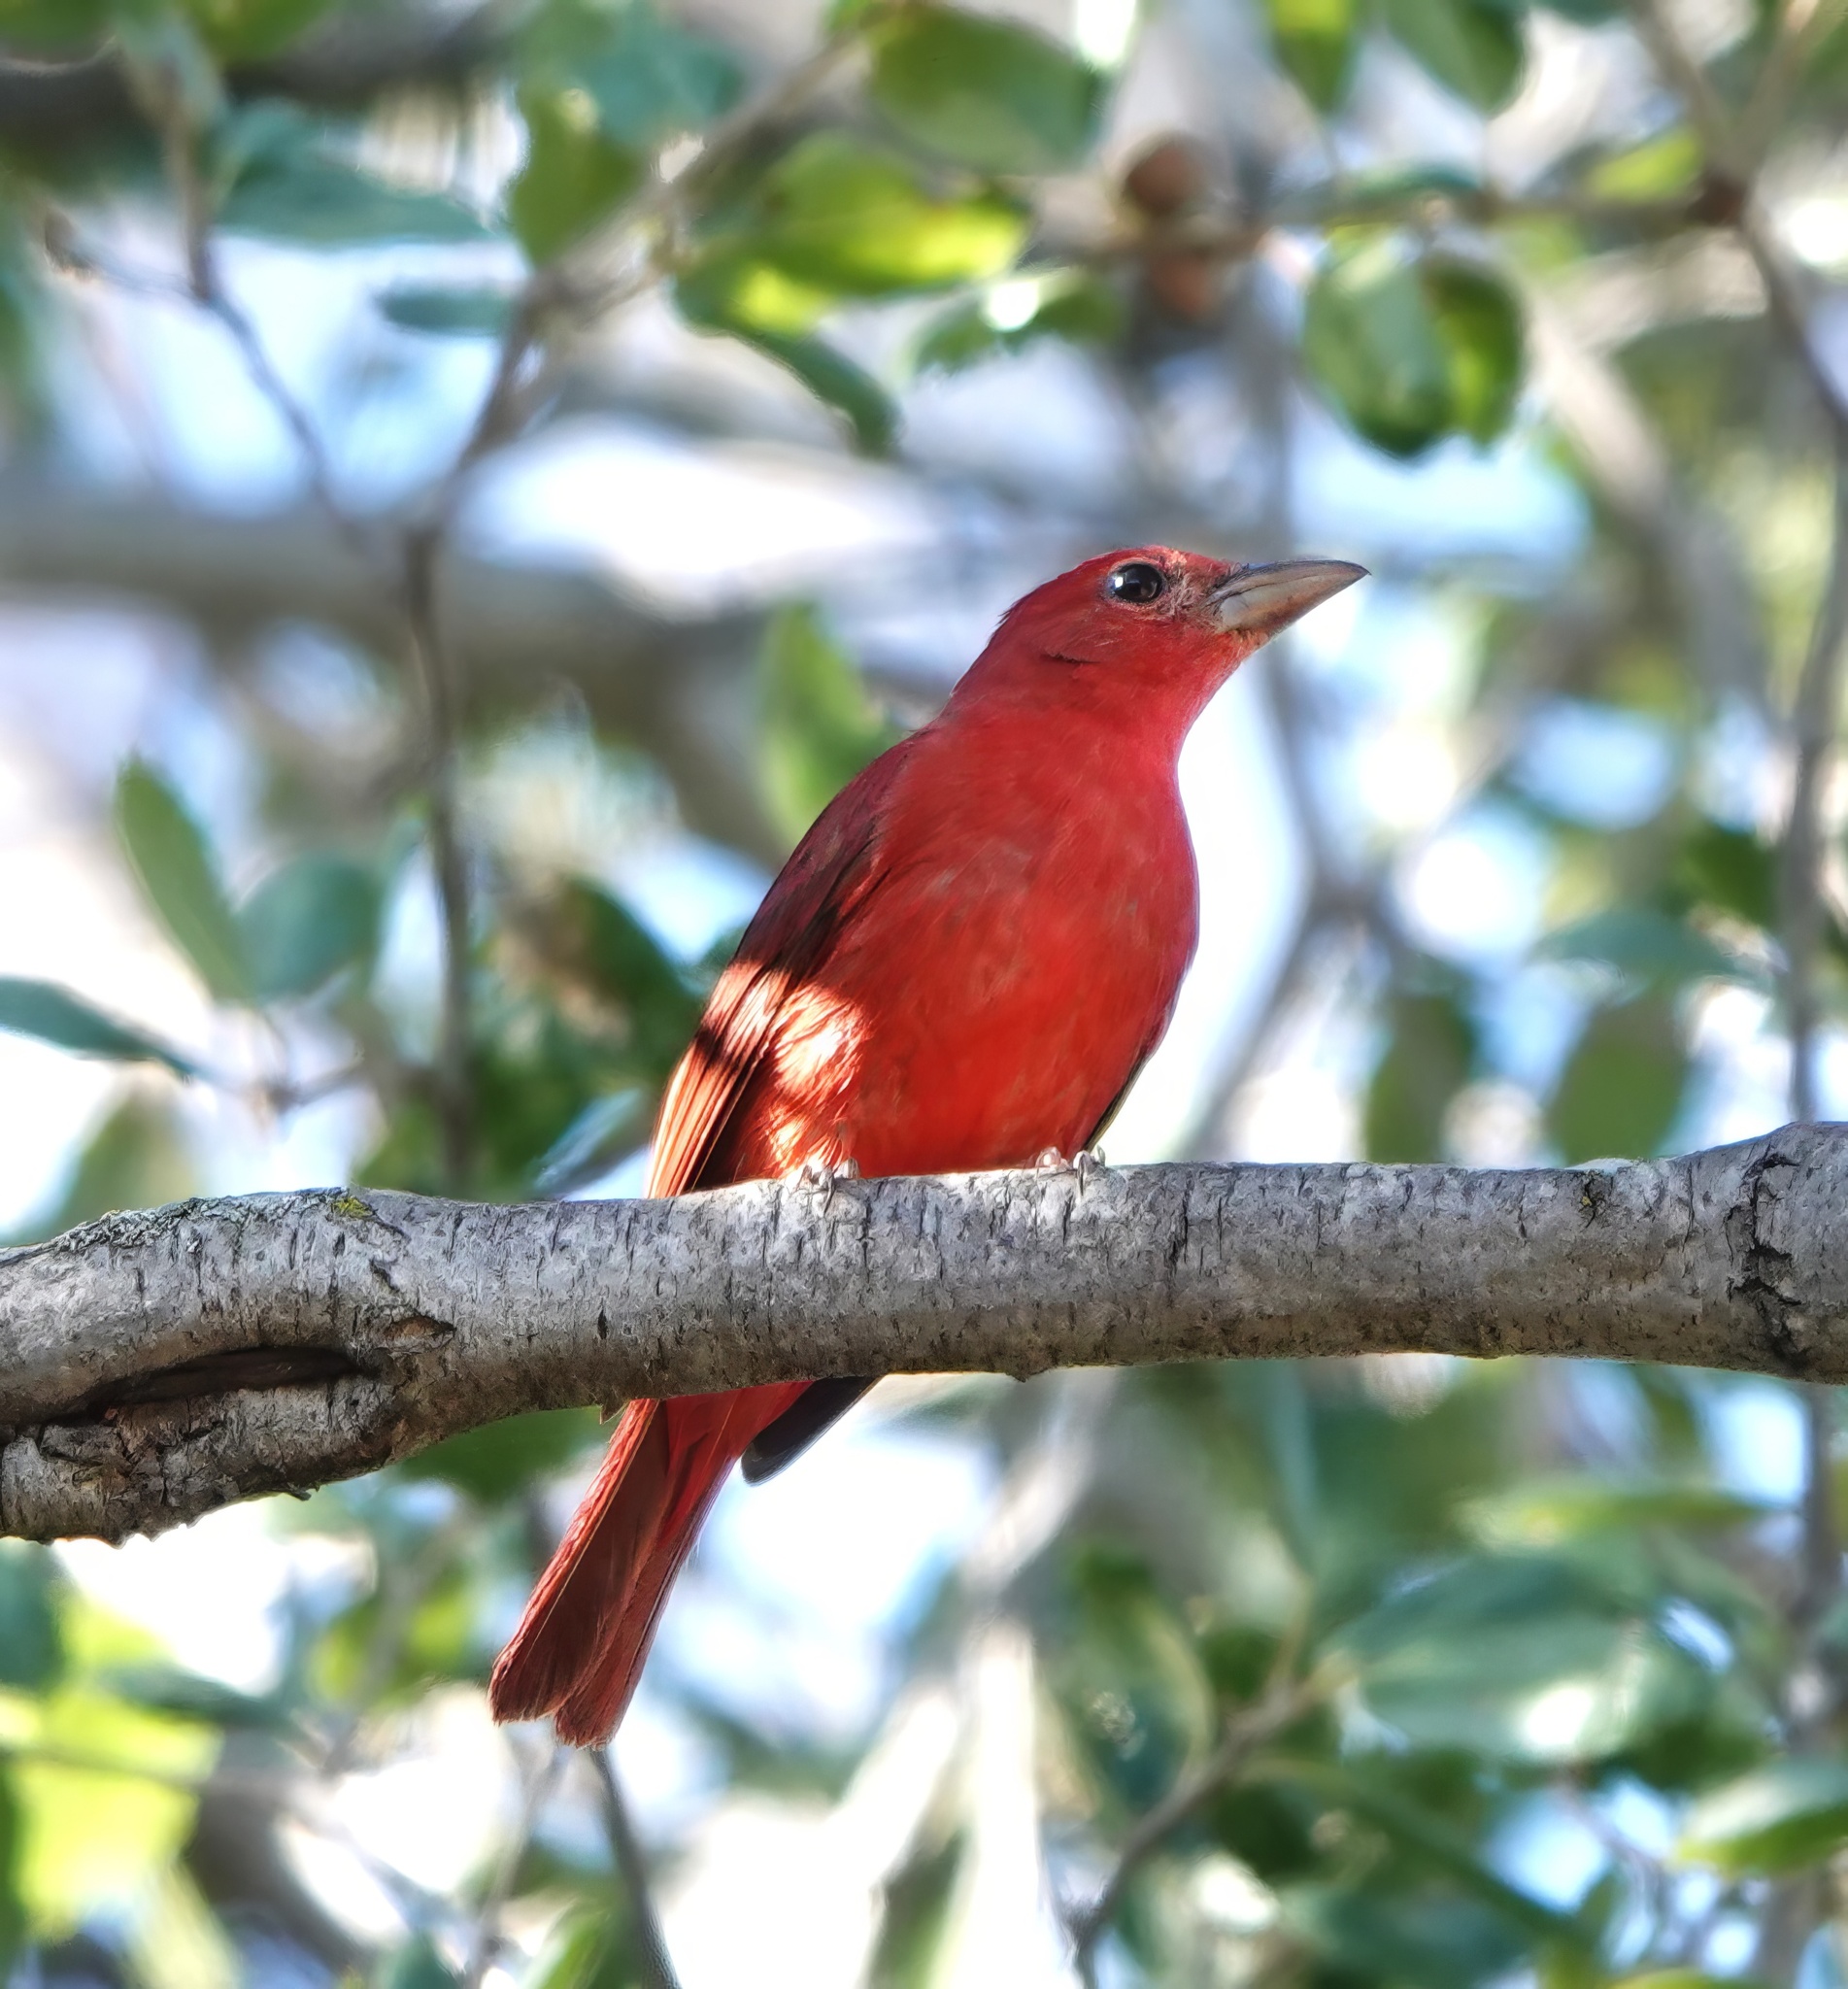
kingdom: Animalia
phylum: Chordata
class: Aves
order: Passeriformes
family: Cardinalidae
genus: Piranga
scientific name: Piranga rubra
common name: Summer tanager
